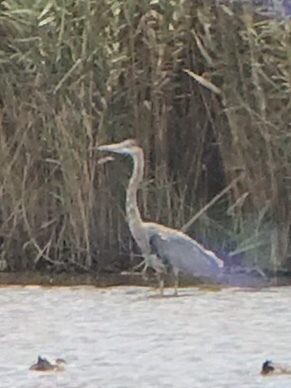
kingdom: Animalia
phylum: Chordata
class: Aves
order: Pelecaniformes
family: Ardeidae
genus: Ardea
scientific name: Ardea herodias
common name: Great blue heron
